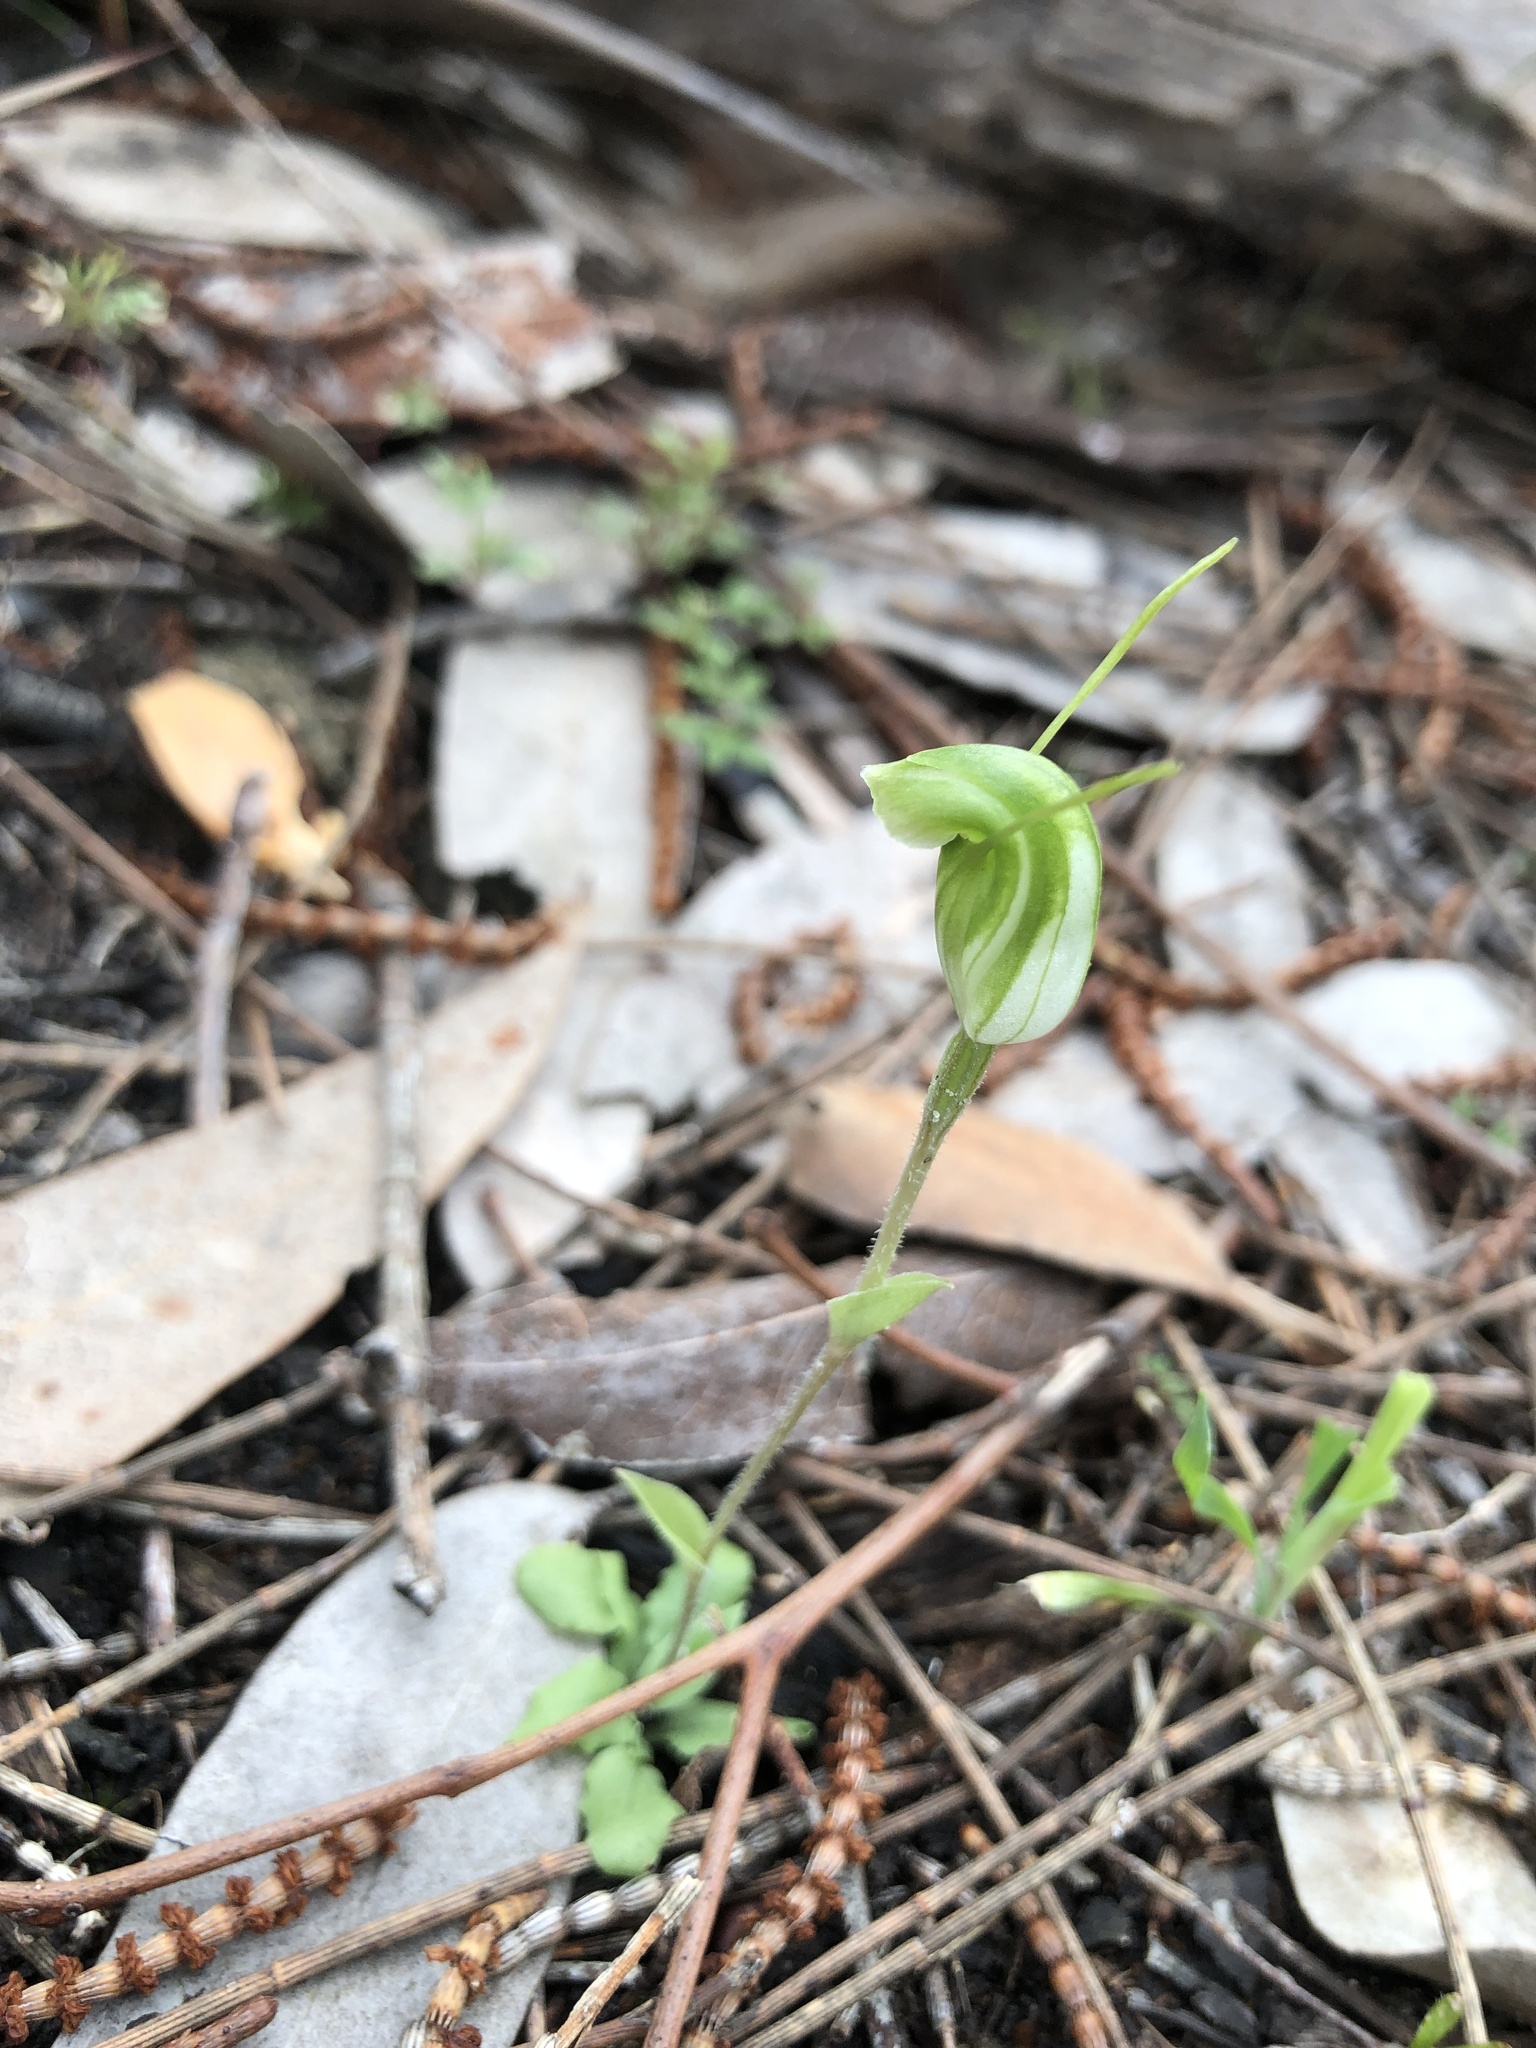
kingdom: Plantae
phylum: Tracheophyta
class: Liliopsida
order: Asparagales
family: Orchidaceae
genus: Pterostylis
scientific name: Pterostylis nana
